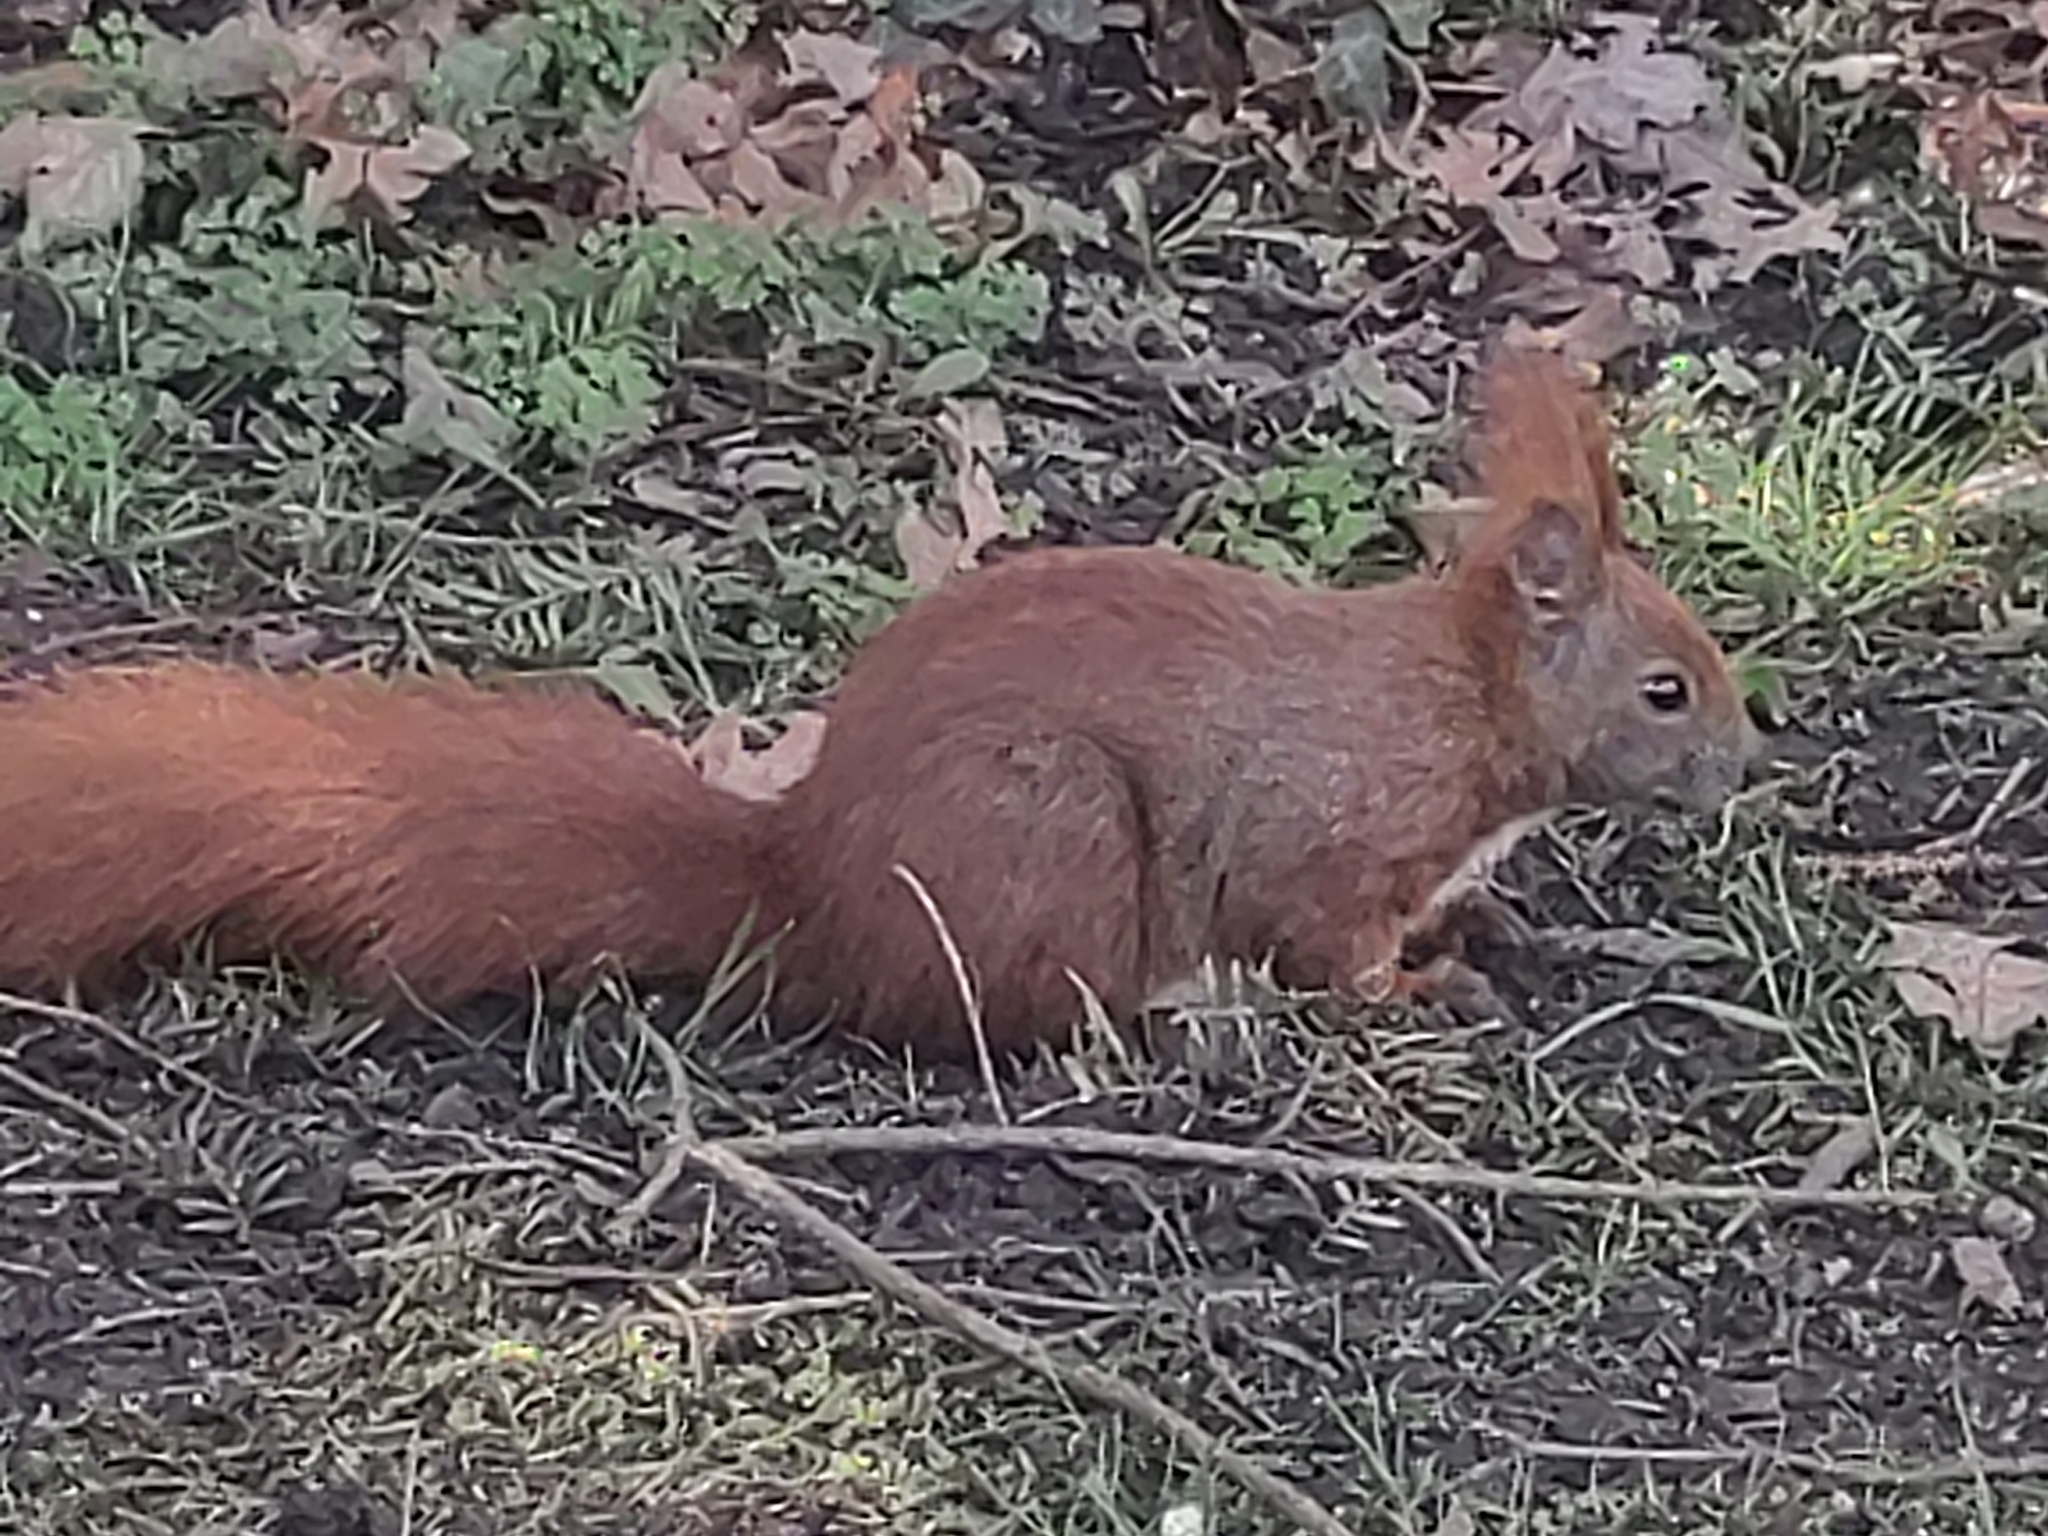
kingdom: Animalia
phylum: Chordata
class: Mammalia
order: Rodentia
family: Sciuridae
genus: Sciurus
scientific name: Sciurus vulgaris
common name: Eurasian red squirrel
